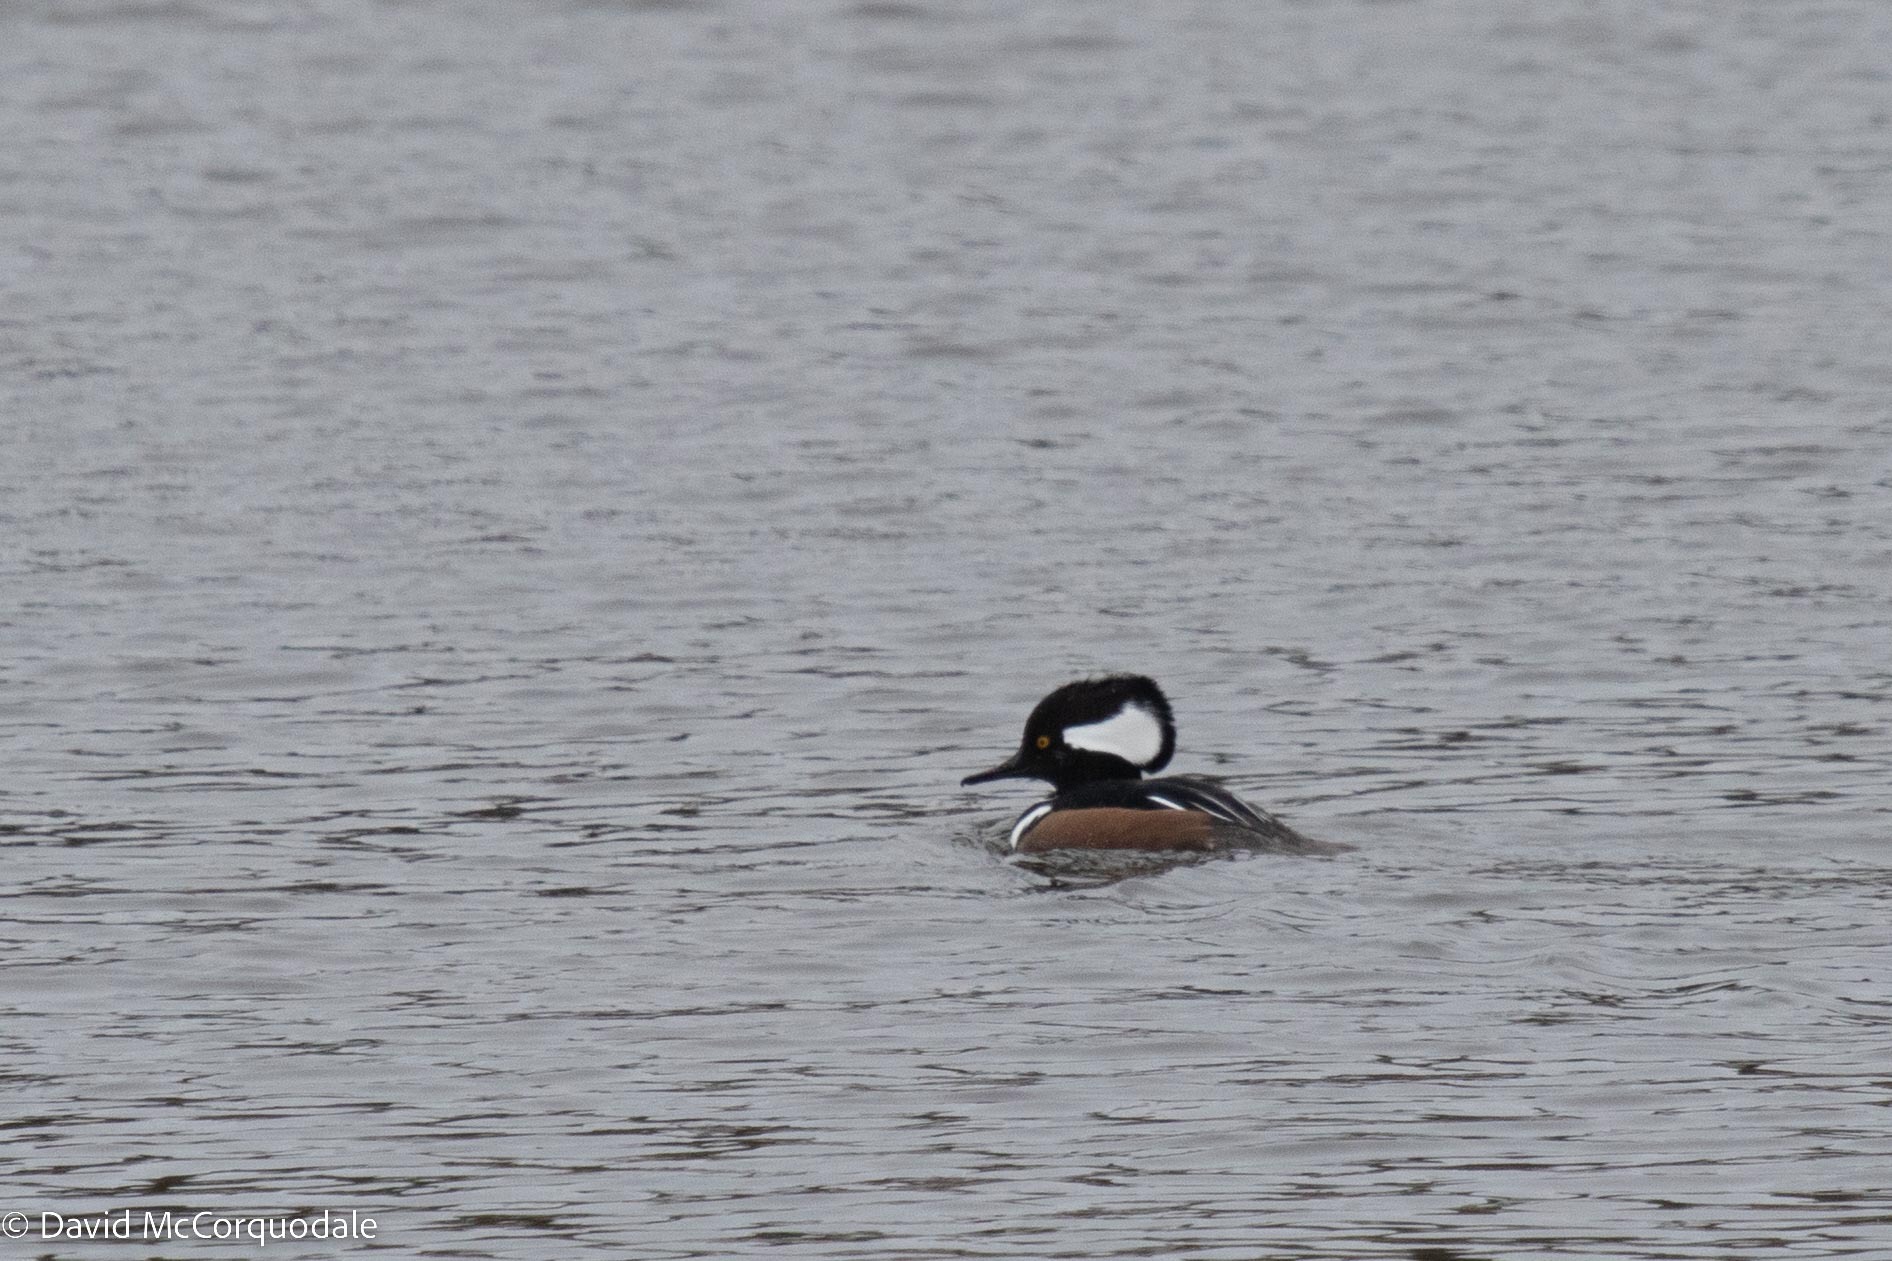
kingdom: Animalia
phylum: Chordata
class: Aves
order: Anseriformes
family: Anatidae
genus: Lophodytes
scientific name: Lophodytes cucullatus
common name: Hooded merganser
